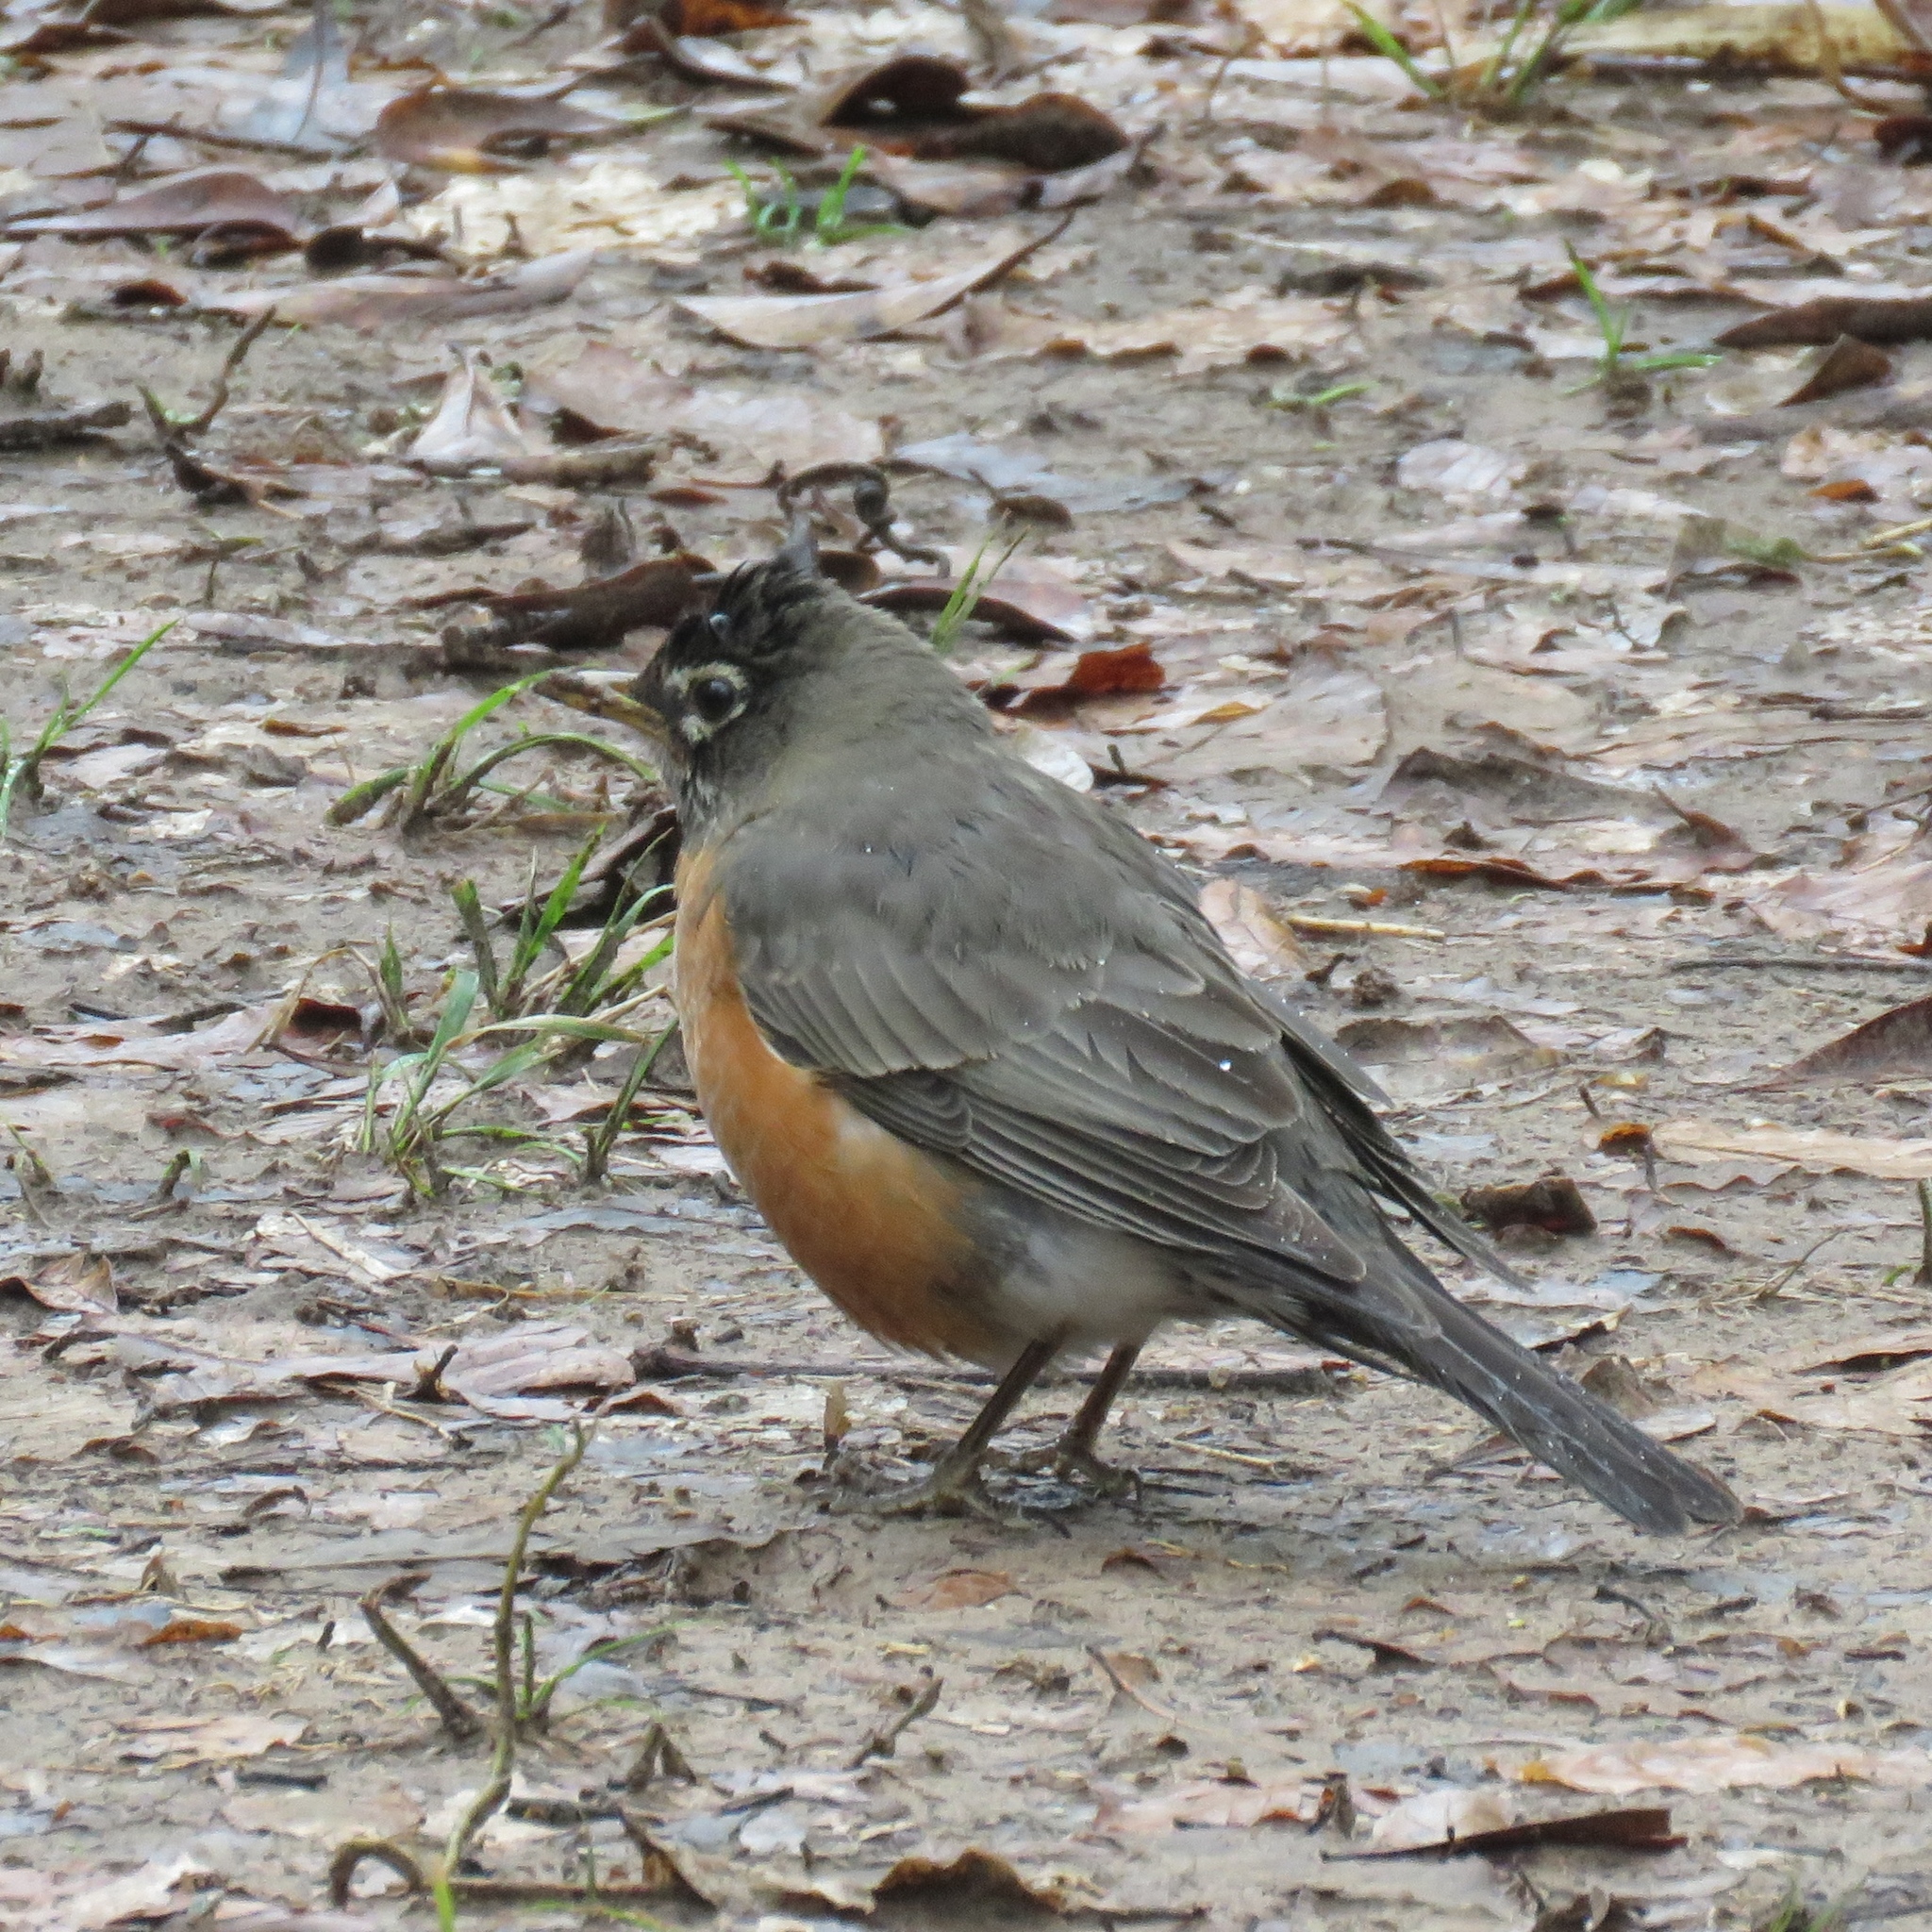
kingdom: Animalia
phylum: Chordata
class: Aves
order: Passeriformes
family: Turdidae
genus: Turdus
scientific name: Turdus migratorius
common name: American robin
